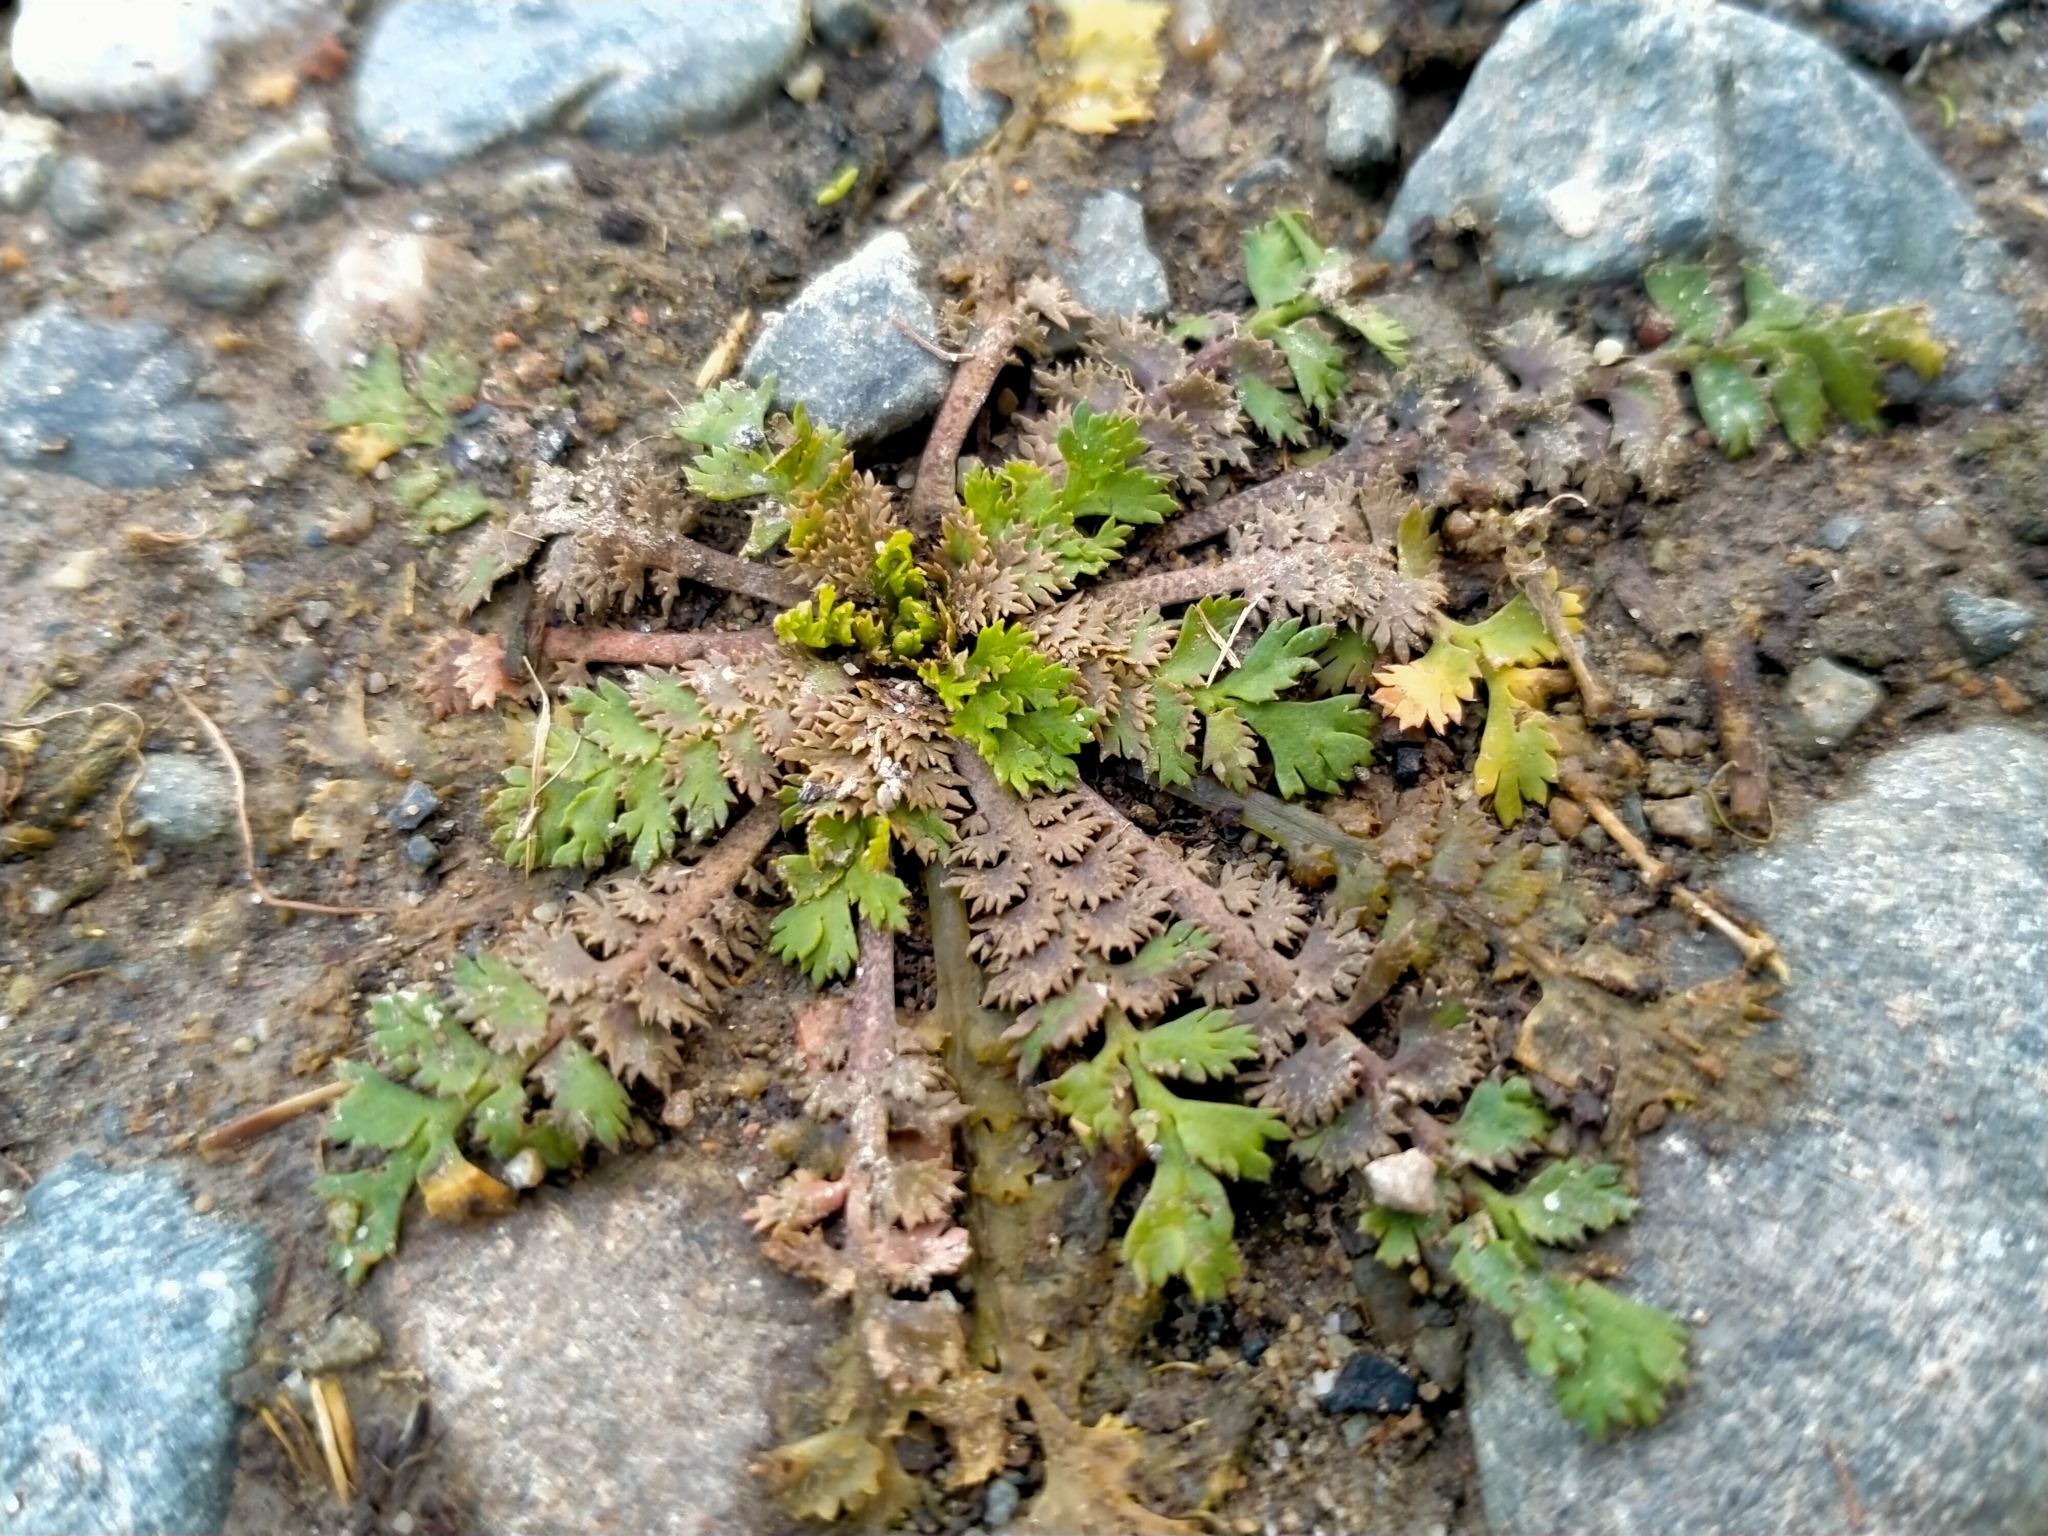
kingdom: Plantae
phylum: Tracheophyta
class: Magnoliopsida
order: Brassicales
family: Brassicaceae
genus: Lepidium
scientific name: Lepidium tenuicaule
